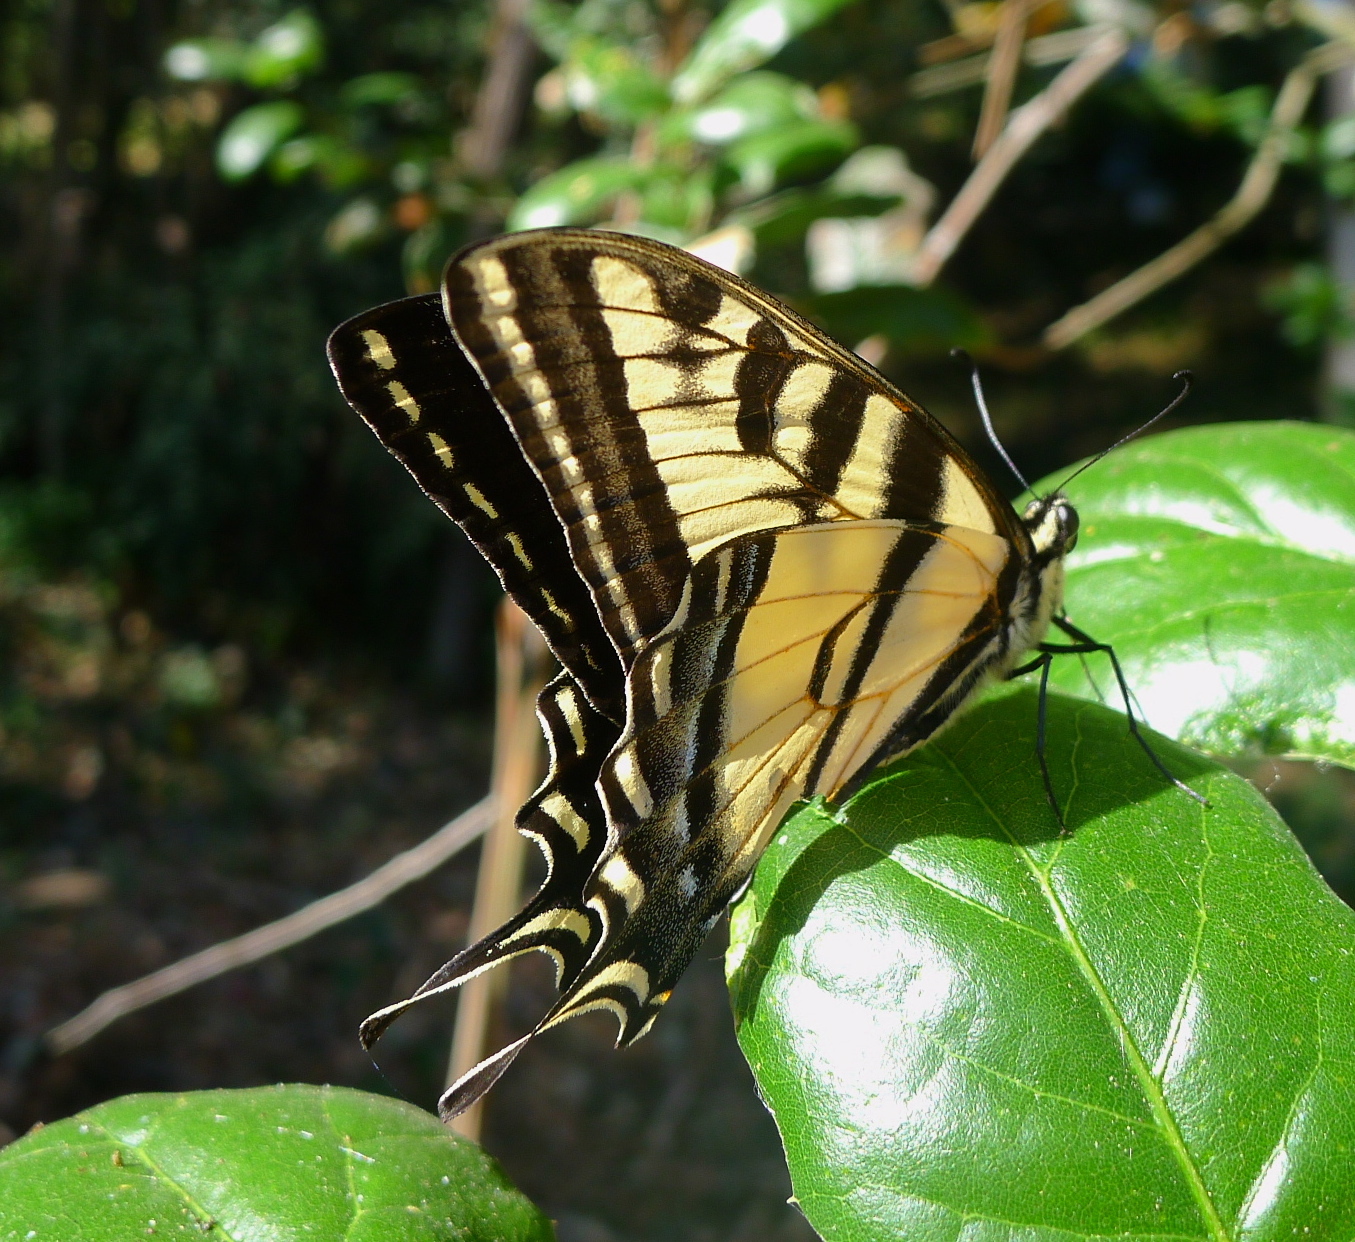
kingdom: Animalia
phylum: Arthropoda
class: Insecta
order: Lepidoptera
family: Papilionidae
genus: Papilio
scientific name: Papilio rutulus
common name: Western tiger swallowtail
